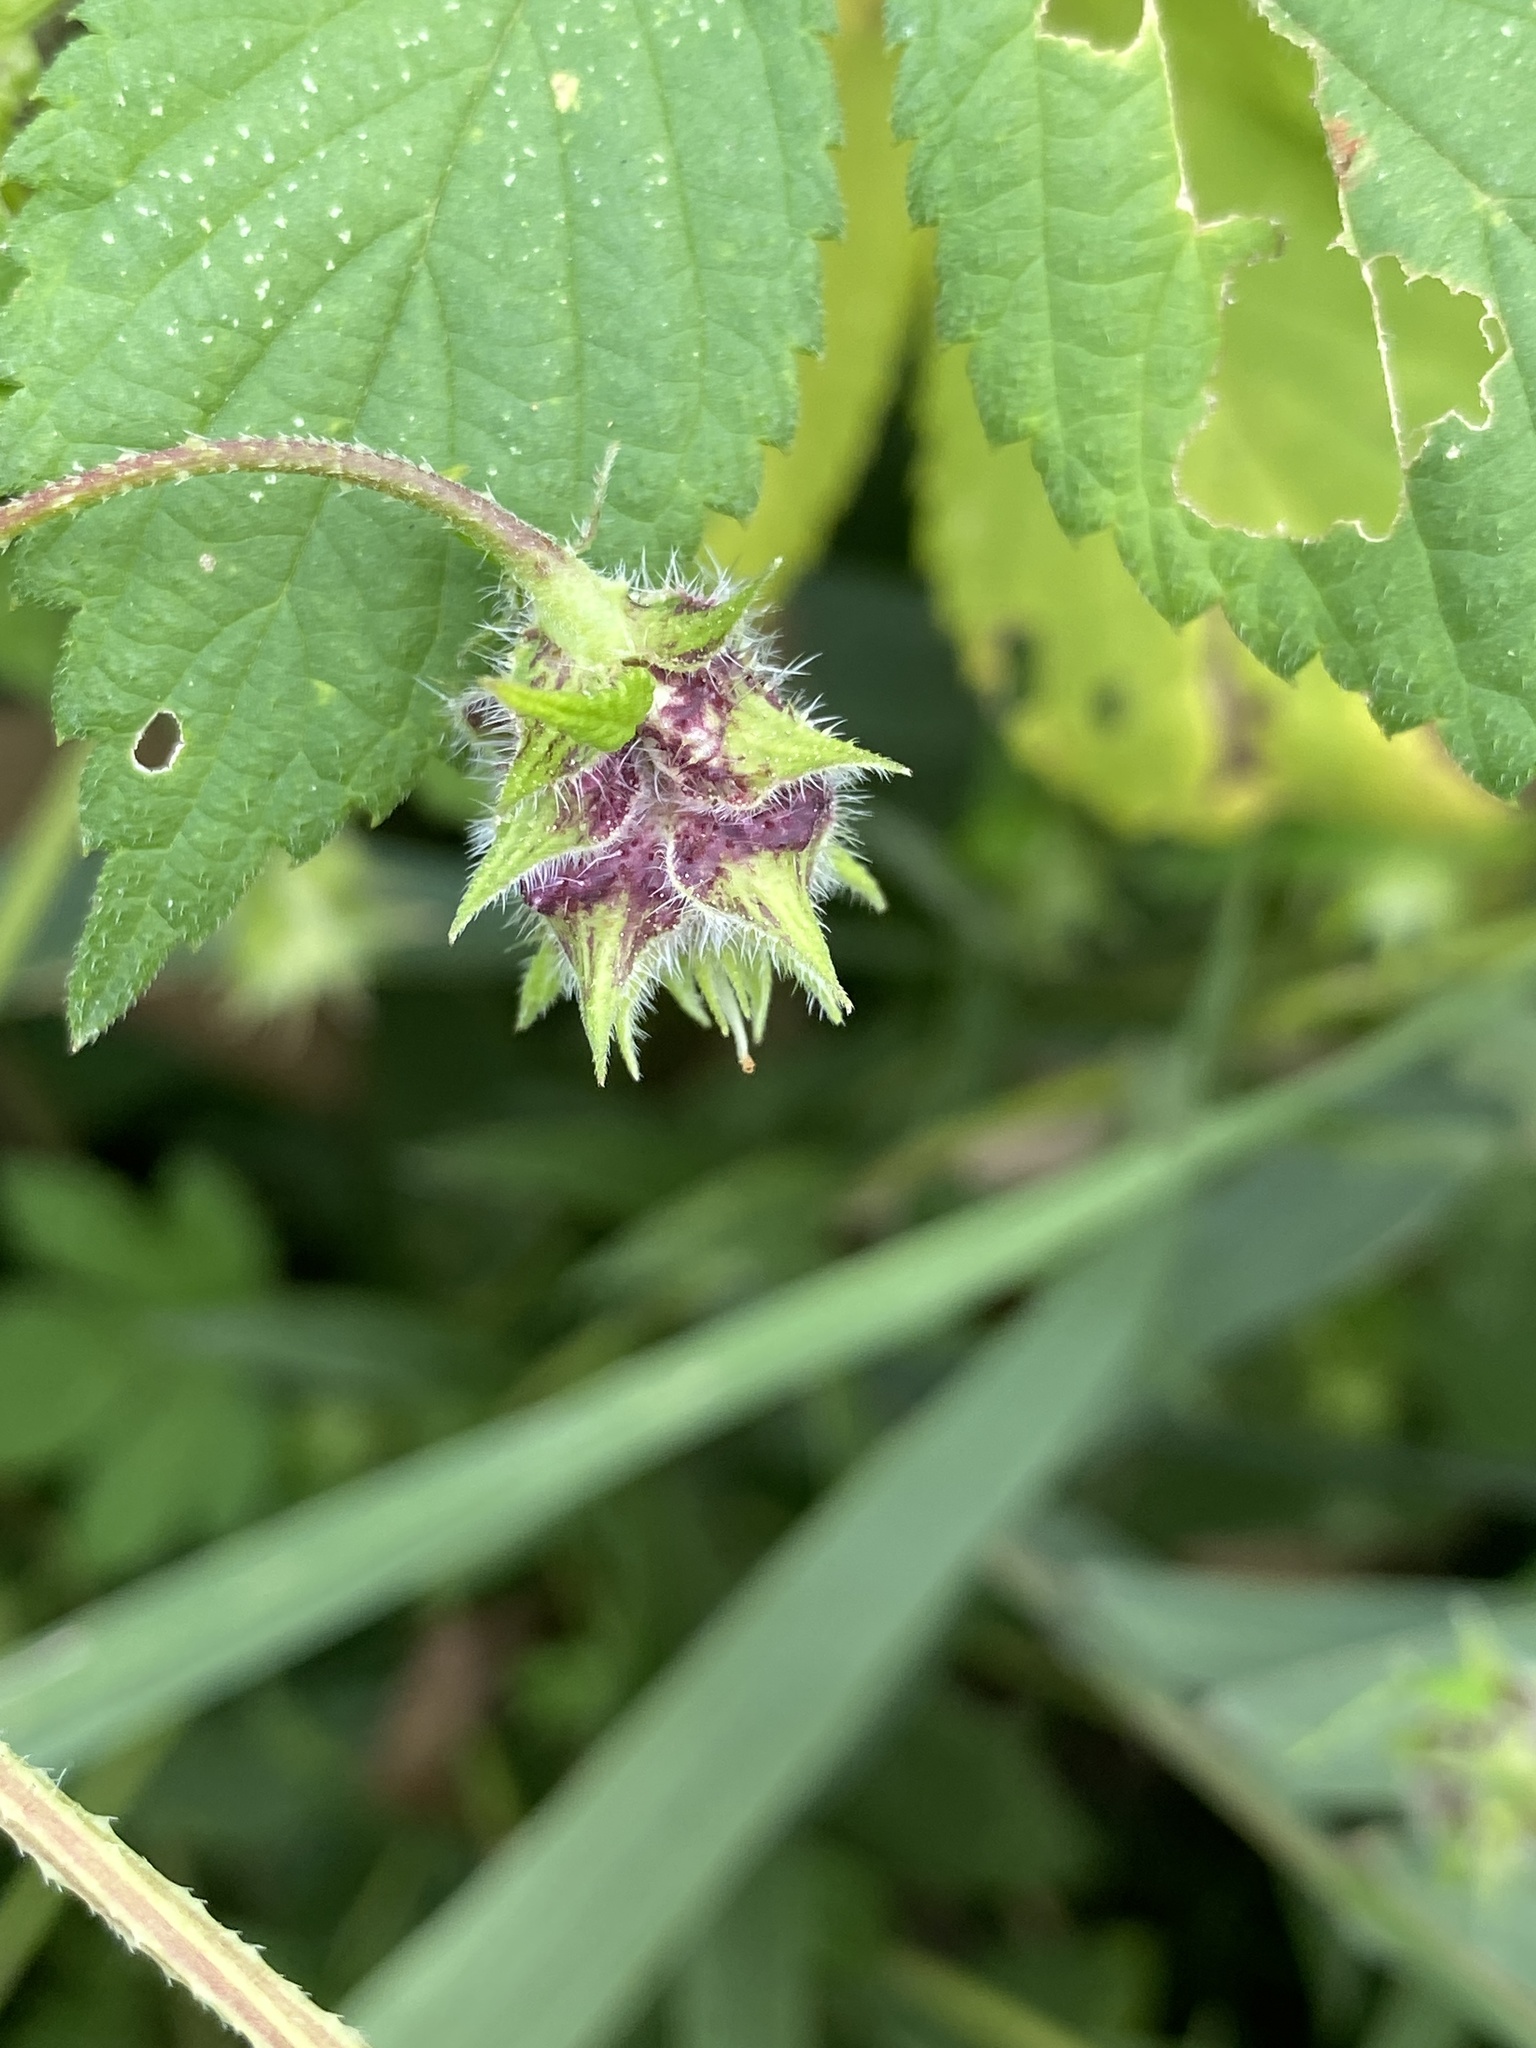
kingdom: Plantae
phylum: Tracheophyta
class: Magnoliopsida
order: Rosales
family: Cannabaceae
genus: Humulus
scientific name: Humulus scandens
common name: Japanese hop
